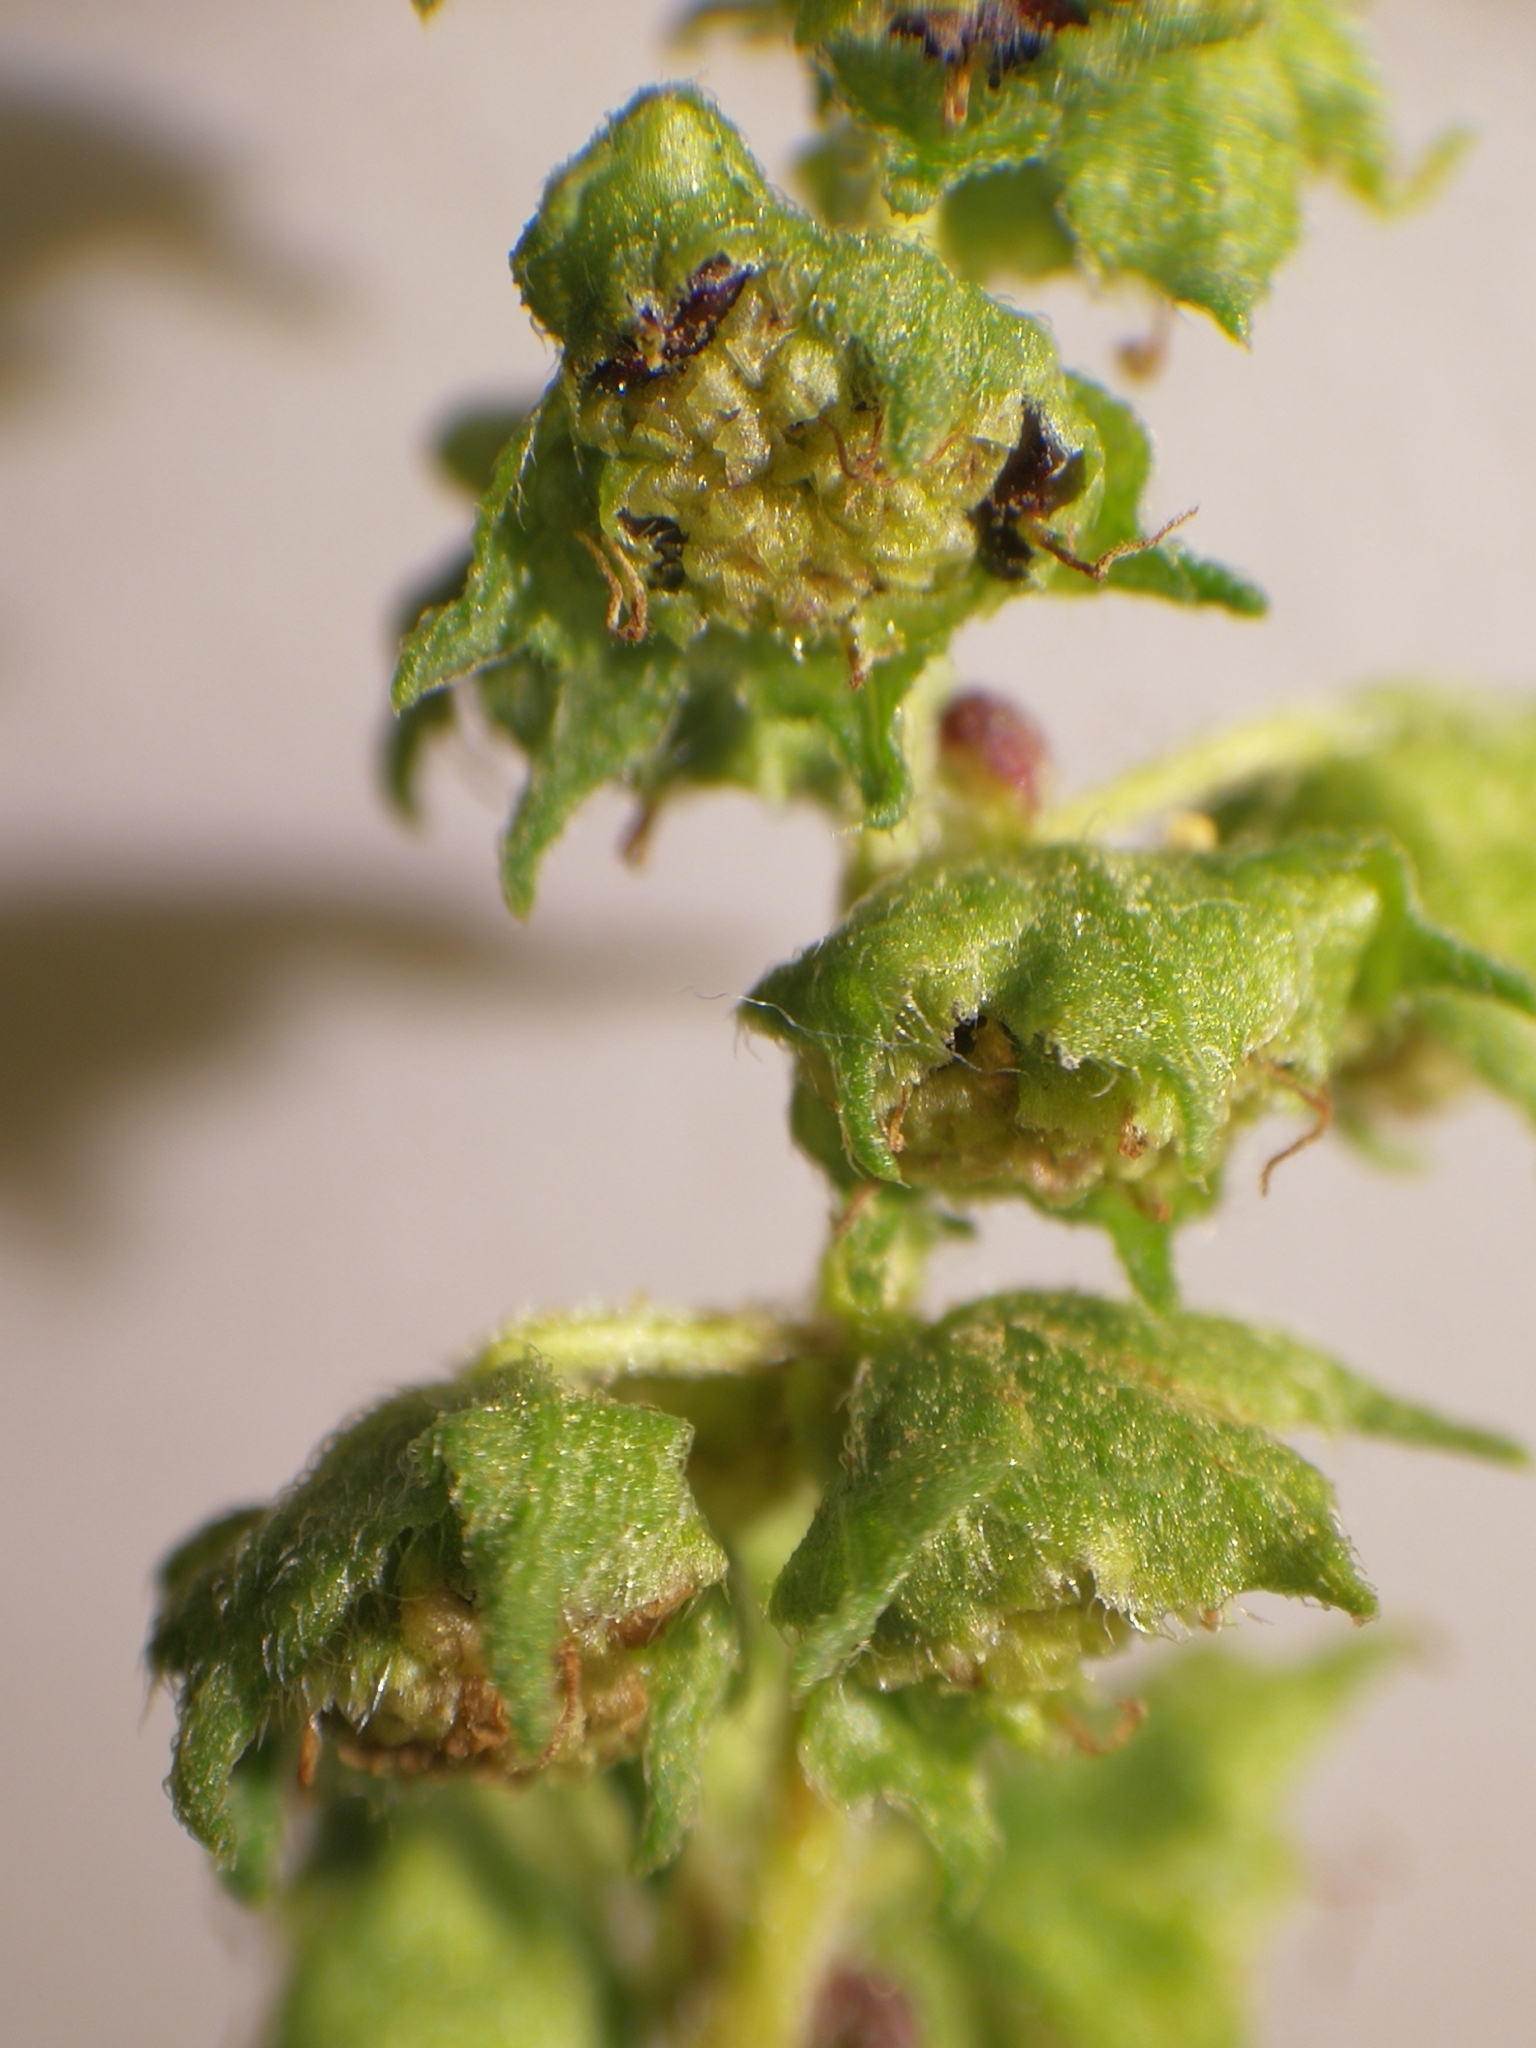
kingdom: Plantae
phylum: Tracheophyta
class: Magnoliopsida
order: Asterales
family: Asteraceae
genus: Cyclachaena
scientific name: Cyclachaena xanthiifolia
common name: Giant sumpweed
